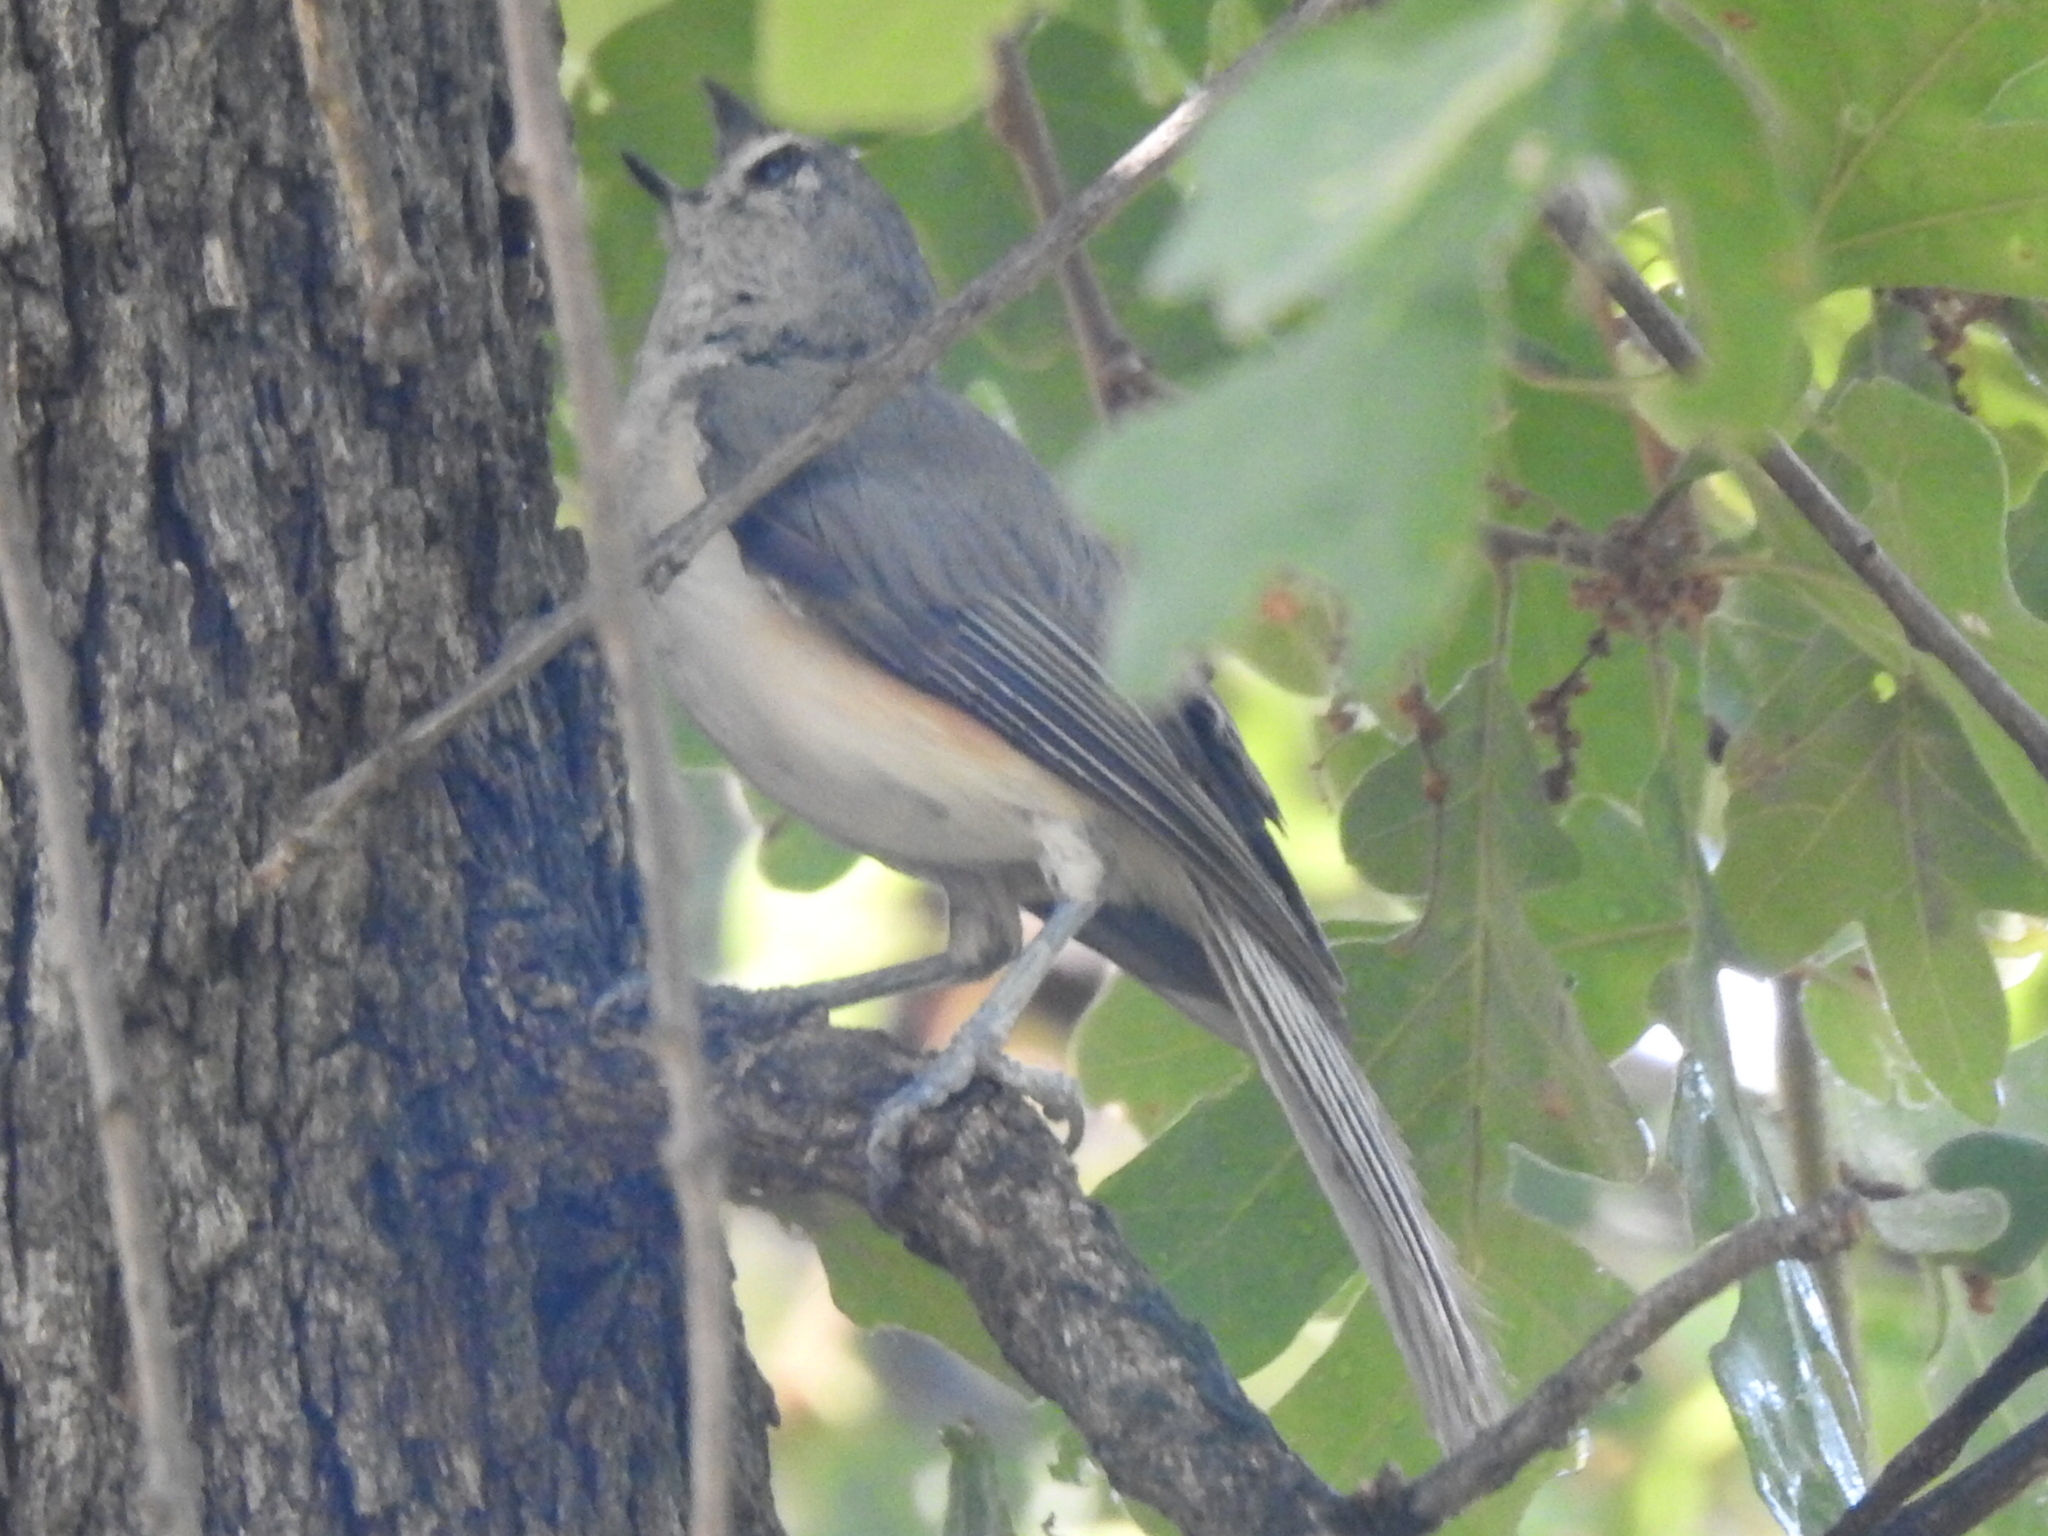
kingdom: Animalia
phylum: Chordata
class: Aves
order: Passeriformes
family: Paridae
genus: Baeolophus
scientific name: Baeolophus bicolor
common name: Tufted titmouse
